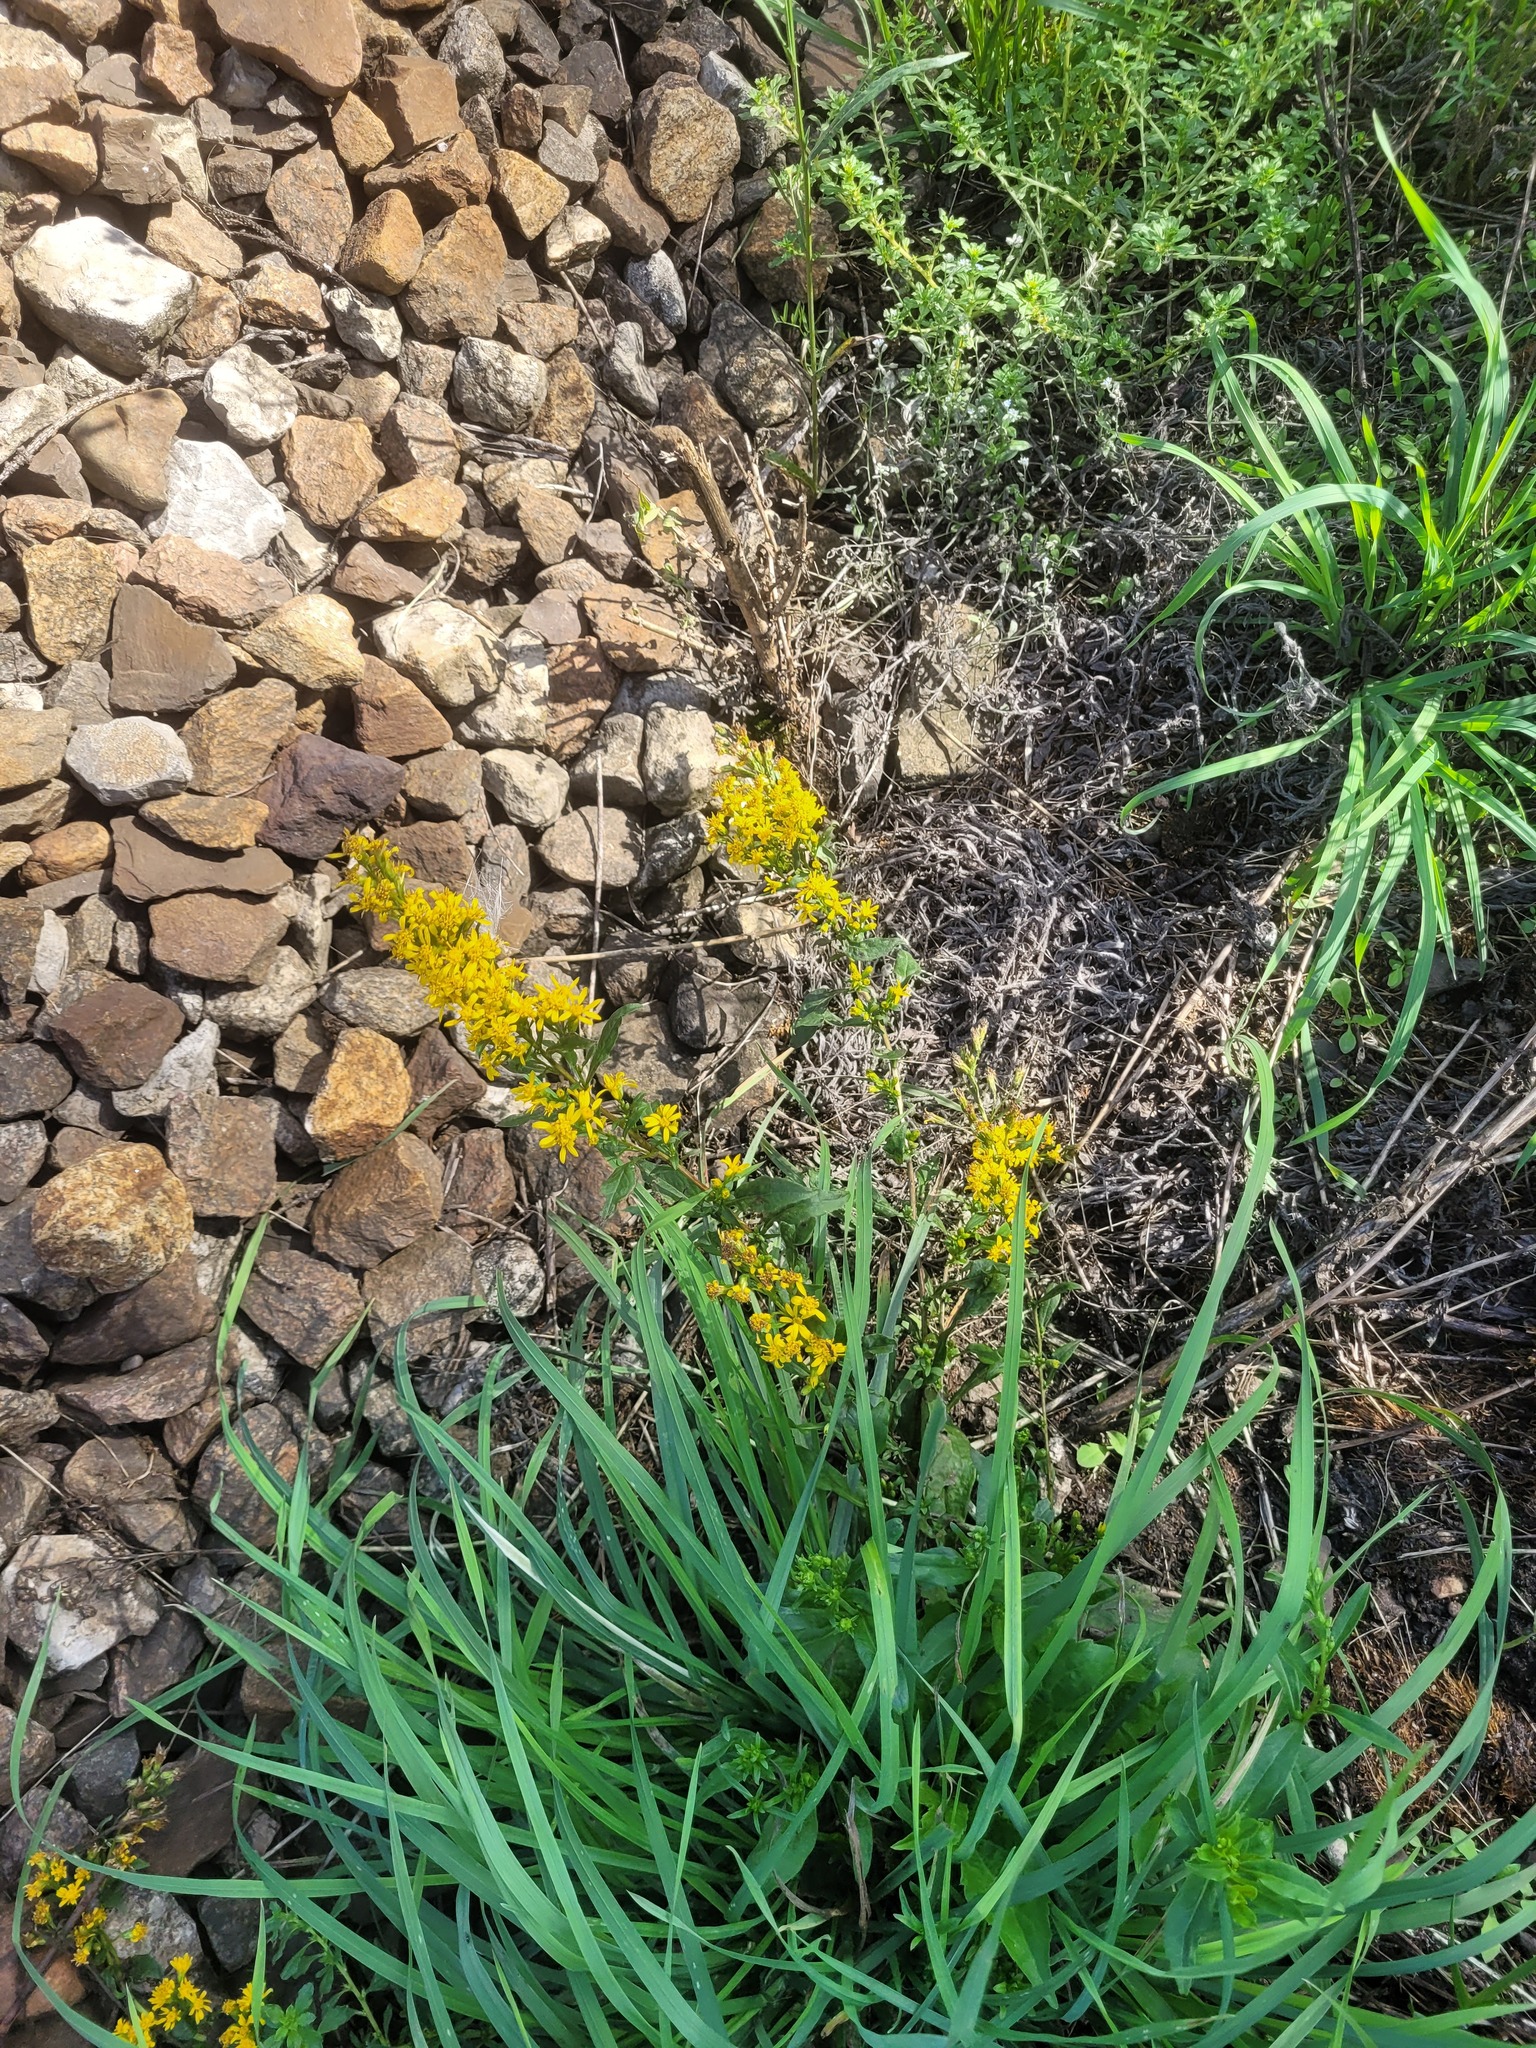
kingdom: Plantae
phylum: Tracheophyta
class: Magnoliopsida
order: Asterales
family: Asteraceae
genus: Solidago
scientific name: Solidago virgaurea
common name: Goldenrod
